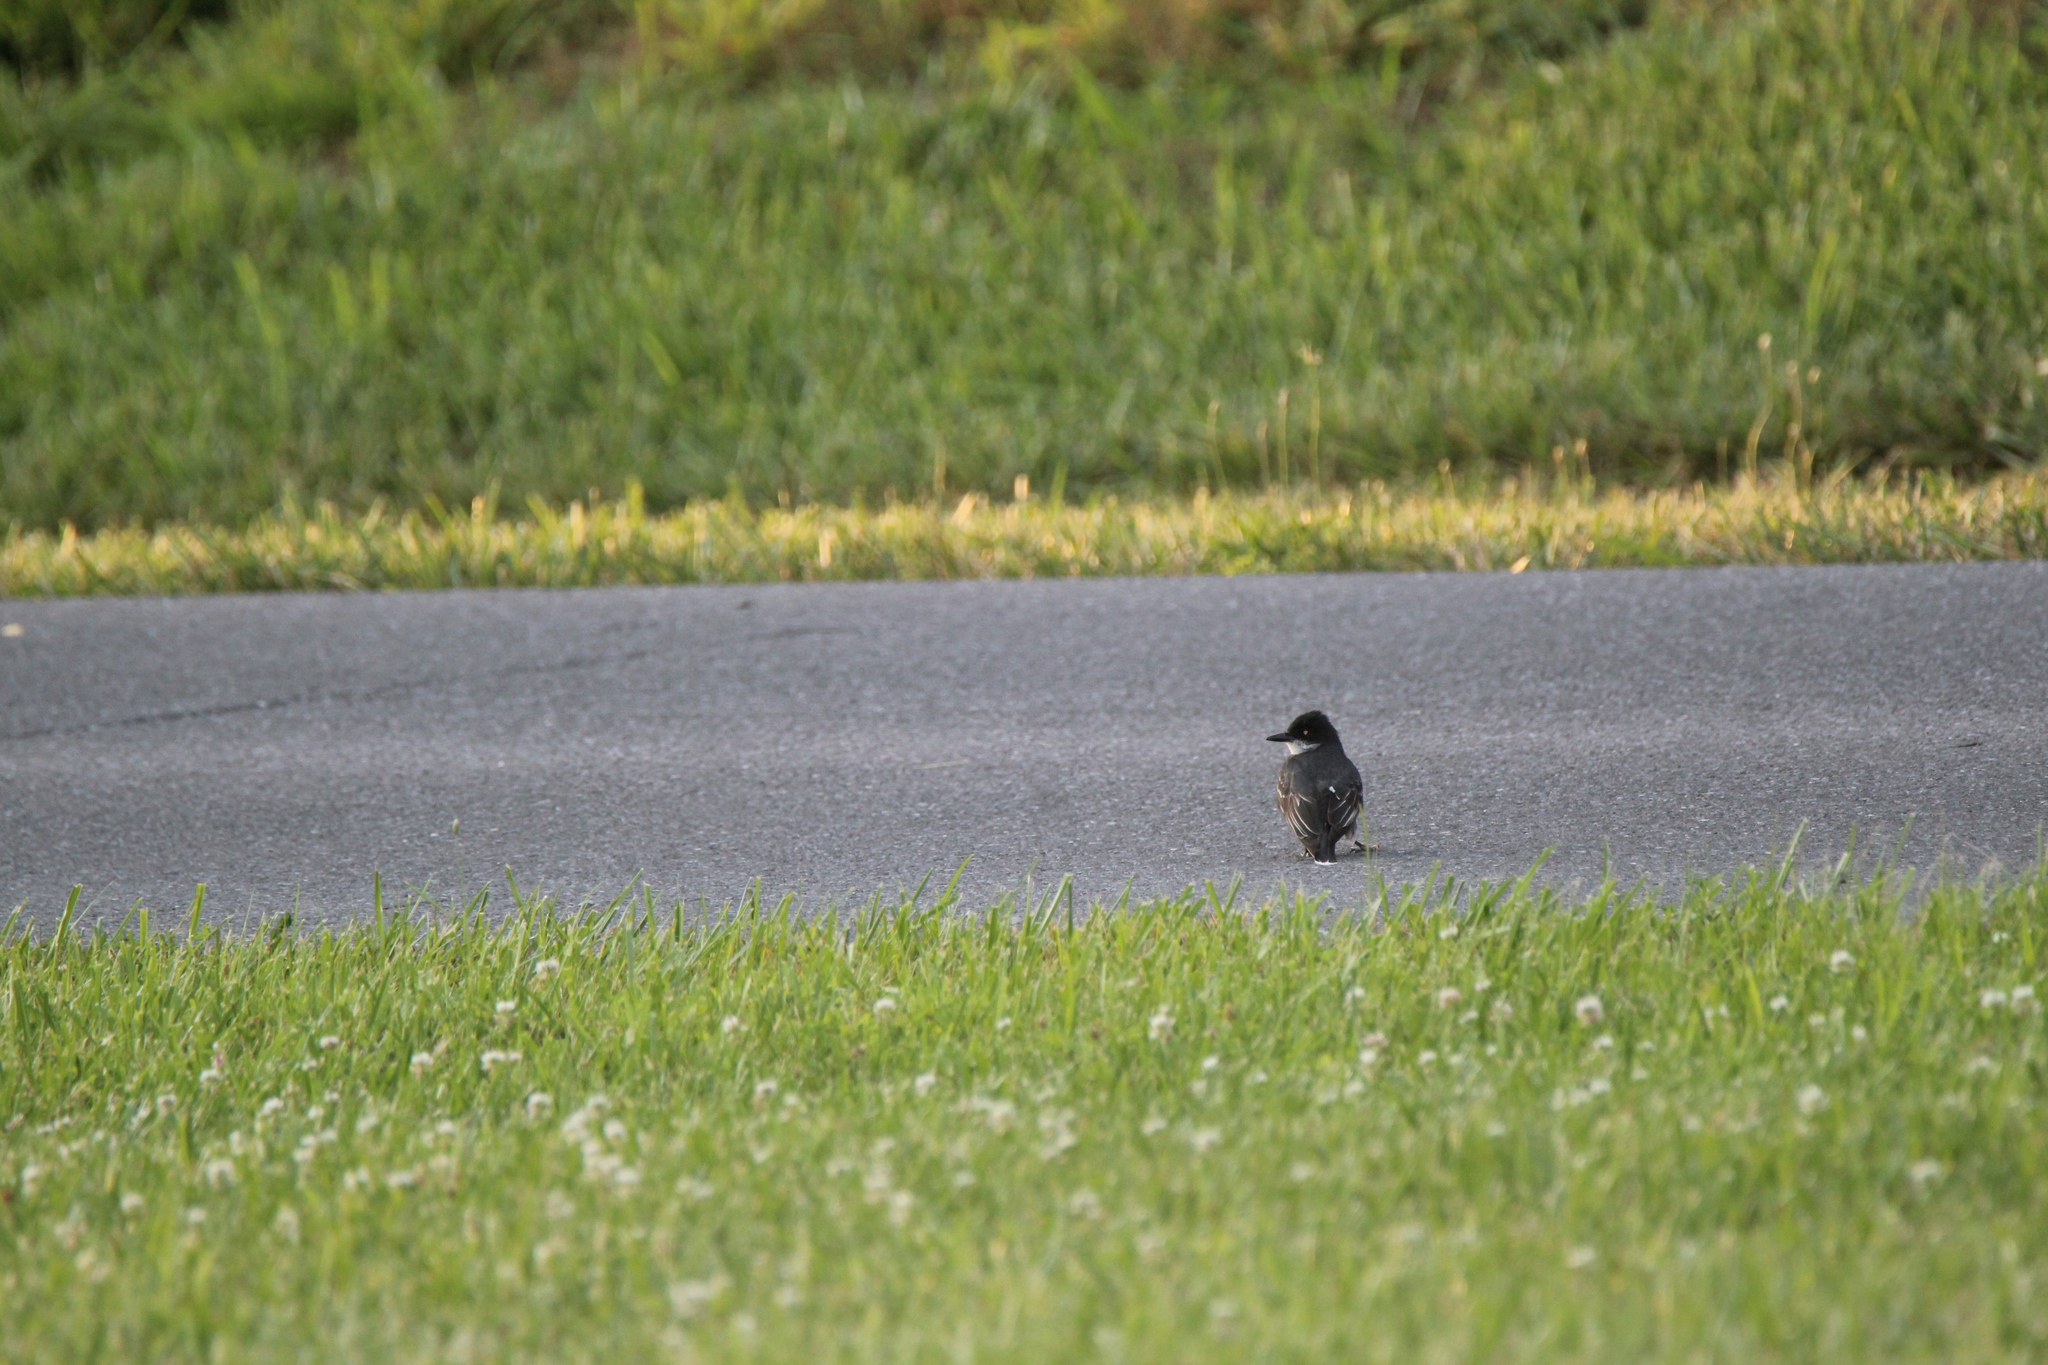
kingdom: Animalia
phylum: Chordata
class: Aves
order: Passeriformes
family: Tyrannidae
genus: Tyrannus
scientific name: Tyrannus tyrannus
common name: Eastern kingbird
